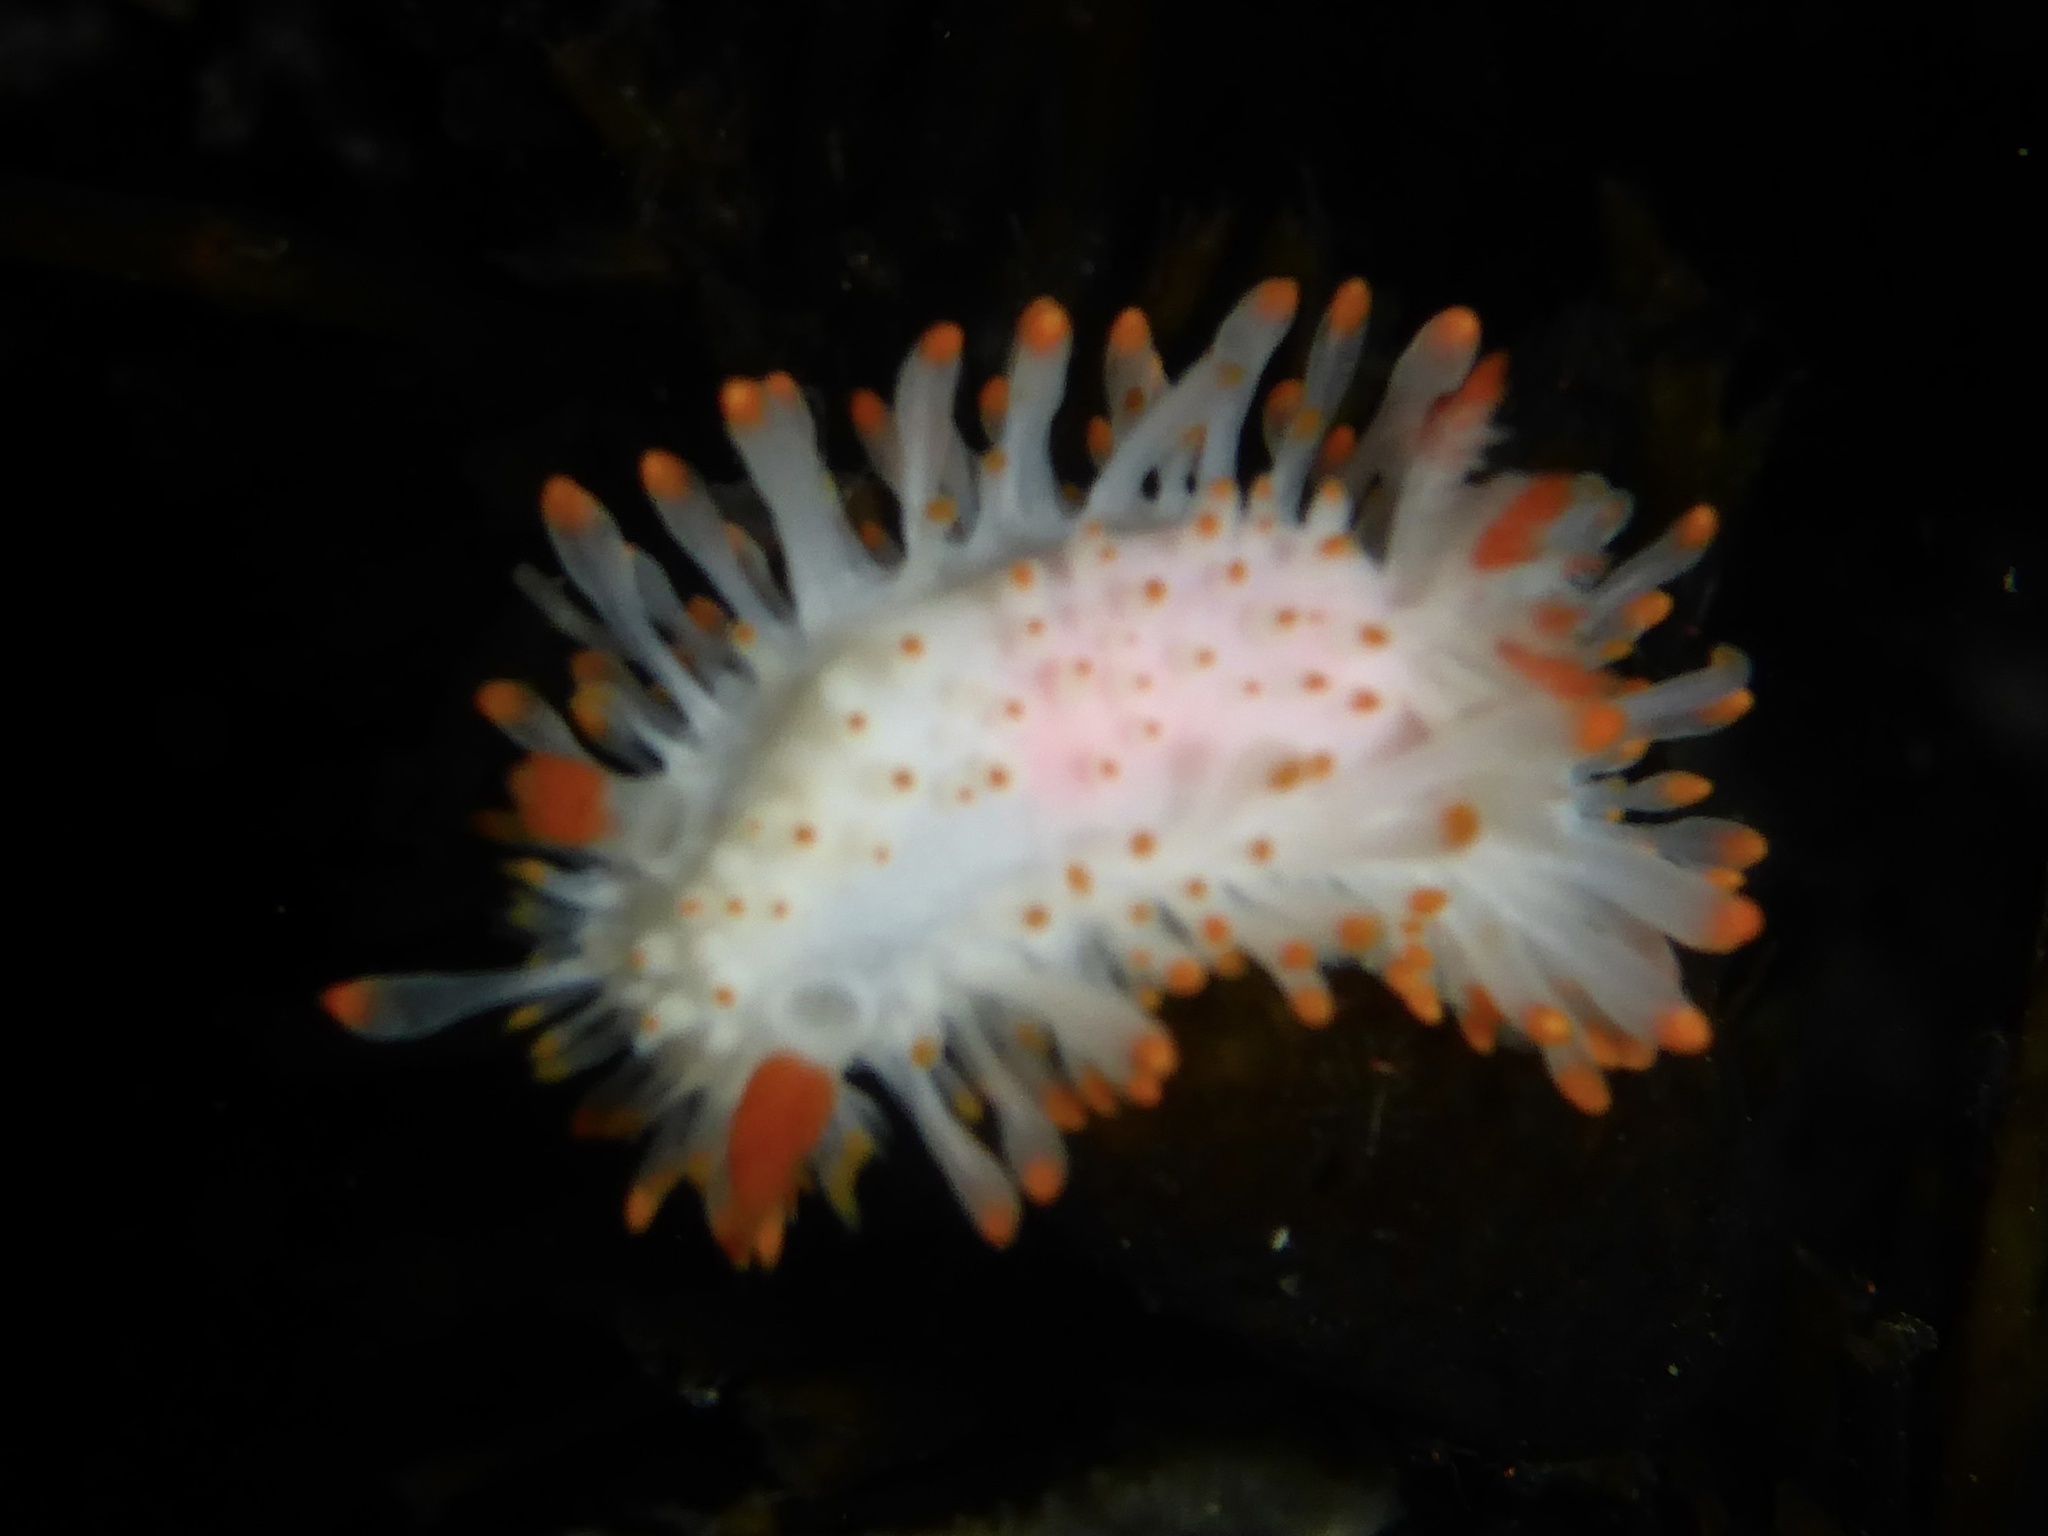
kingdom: Animalia
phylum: Mollusca
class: Gastropoda
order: Nudibranchia
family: Polyceridae
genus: Limacia
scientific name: Limacia cockerelli
